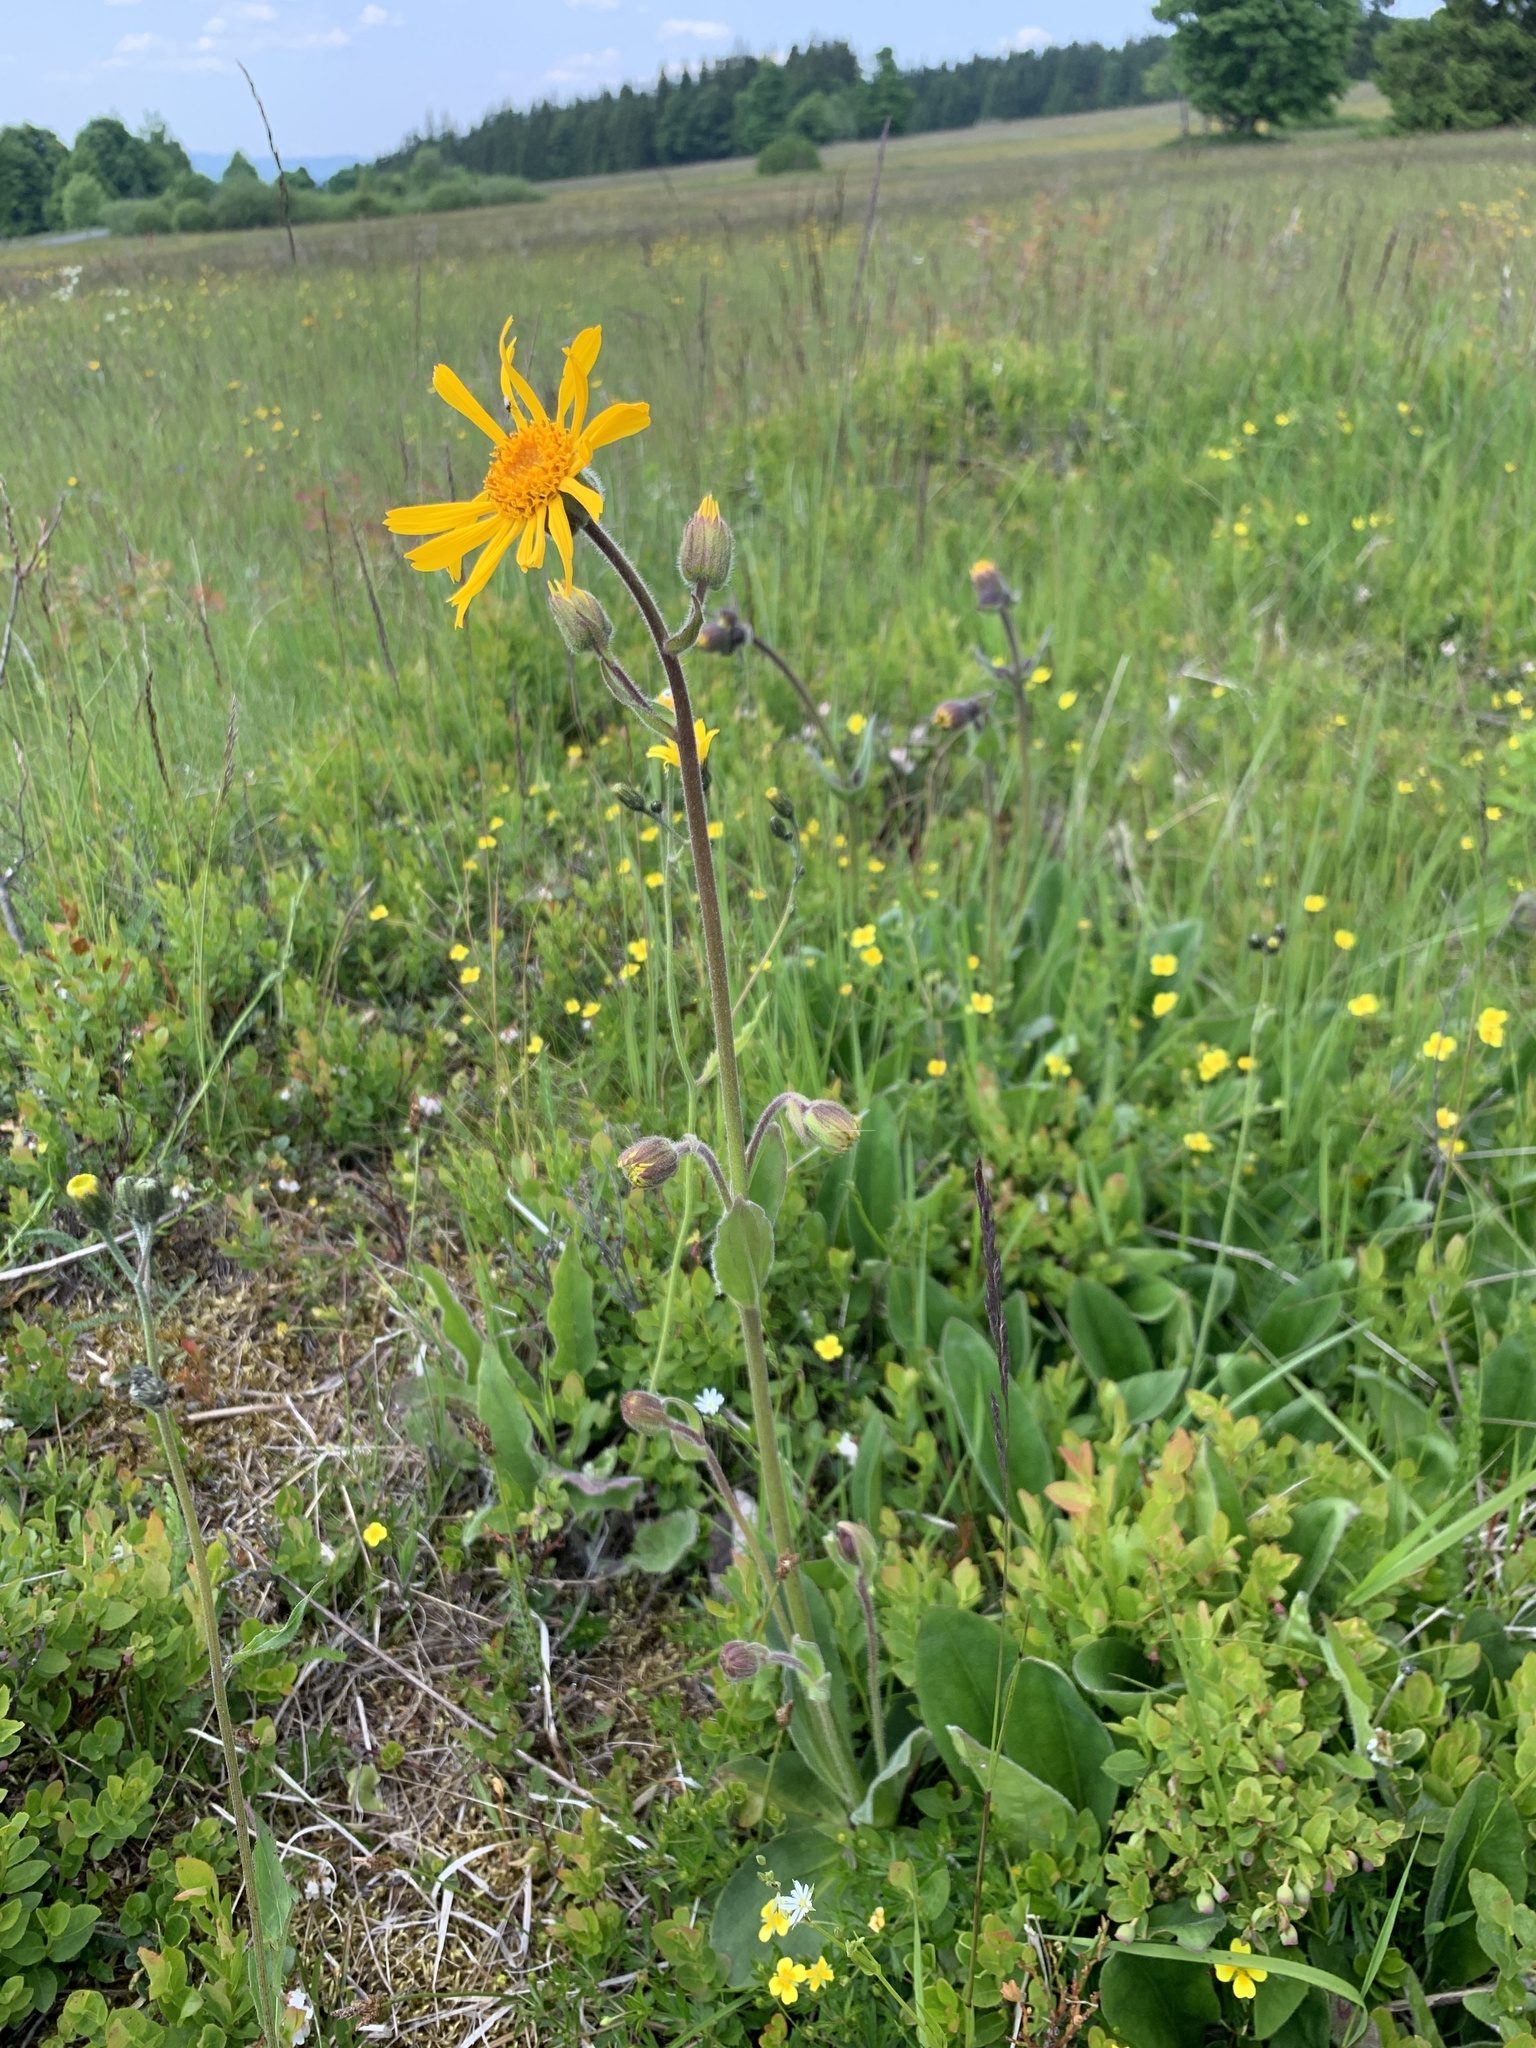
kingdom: Plantae
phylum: Tracheophyta
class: Magnoliopsida
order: Asterales
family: Asteraceae
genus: Arnica
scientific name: Arnica montana
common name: Leopard's bane
